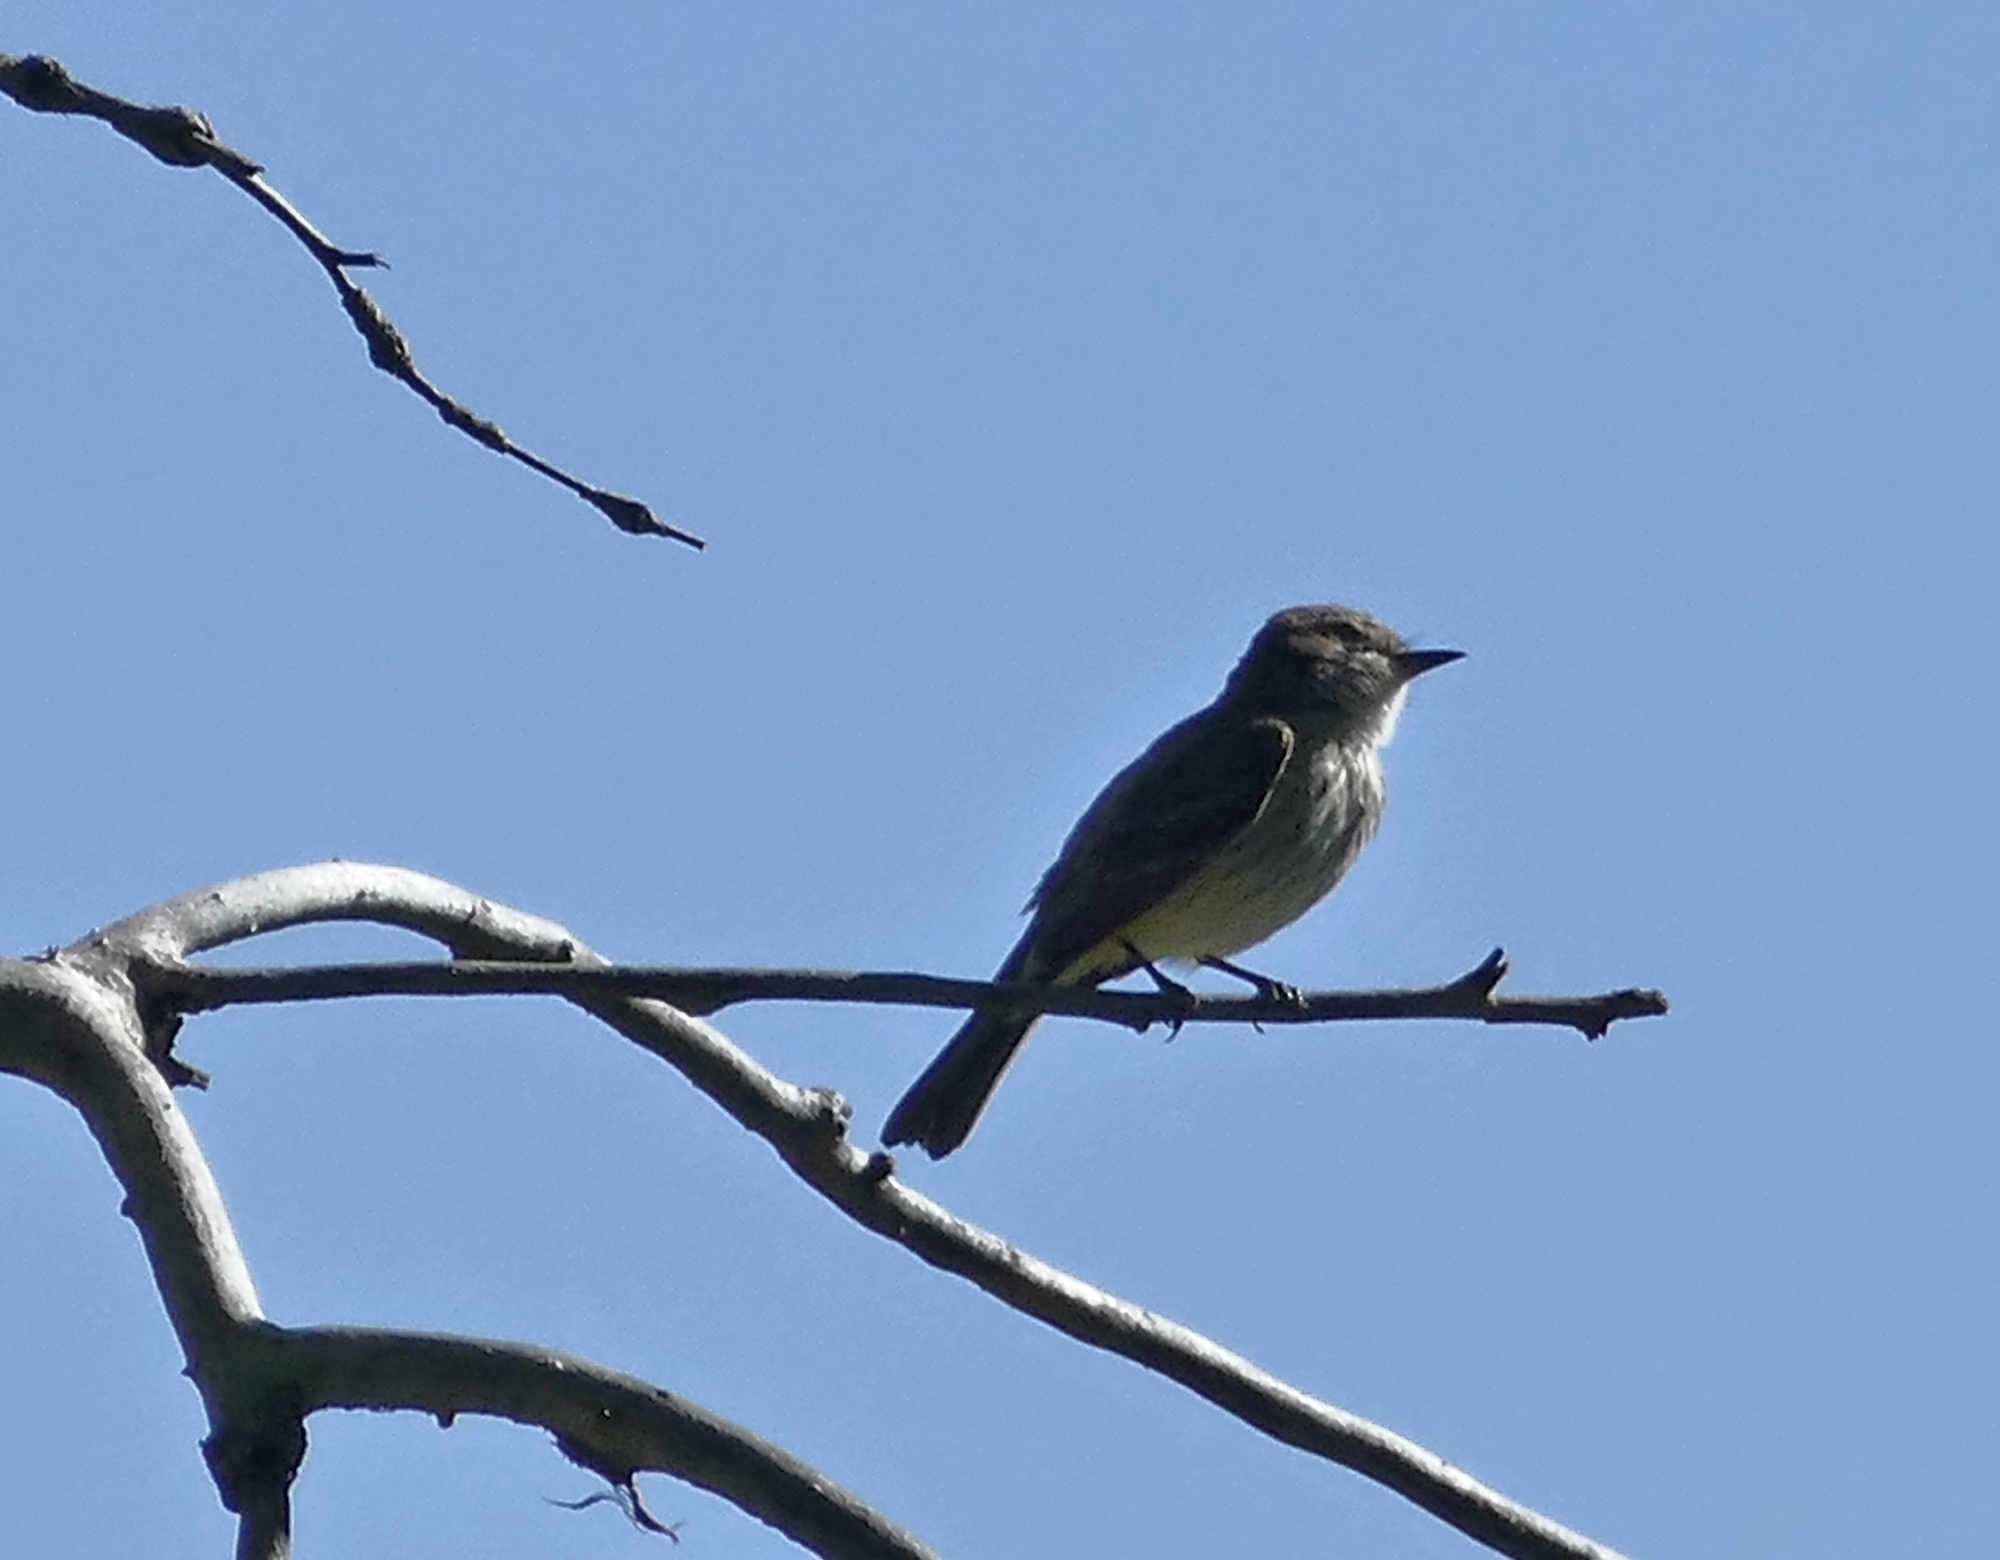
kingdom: Animalia
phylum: Chordata
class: Aves
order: Passeriformes
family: Tyrannidae
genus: Pyrocephalus
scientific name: Pyrocephalus rubinus
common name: Vermilion flycatcher
